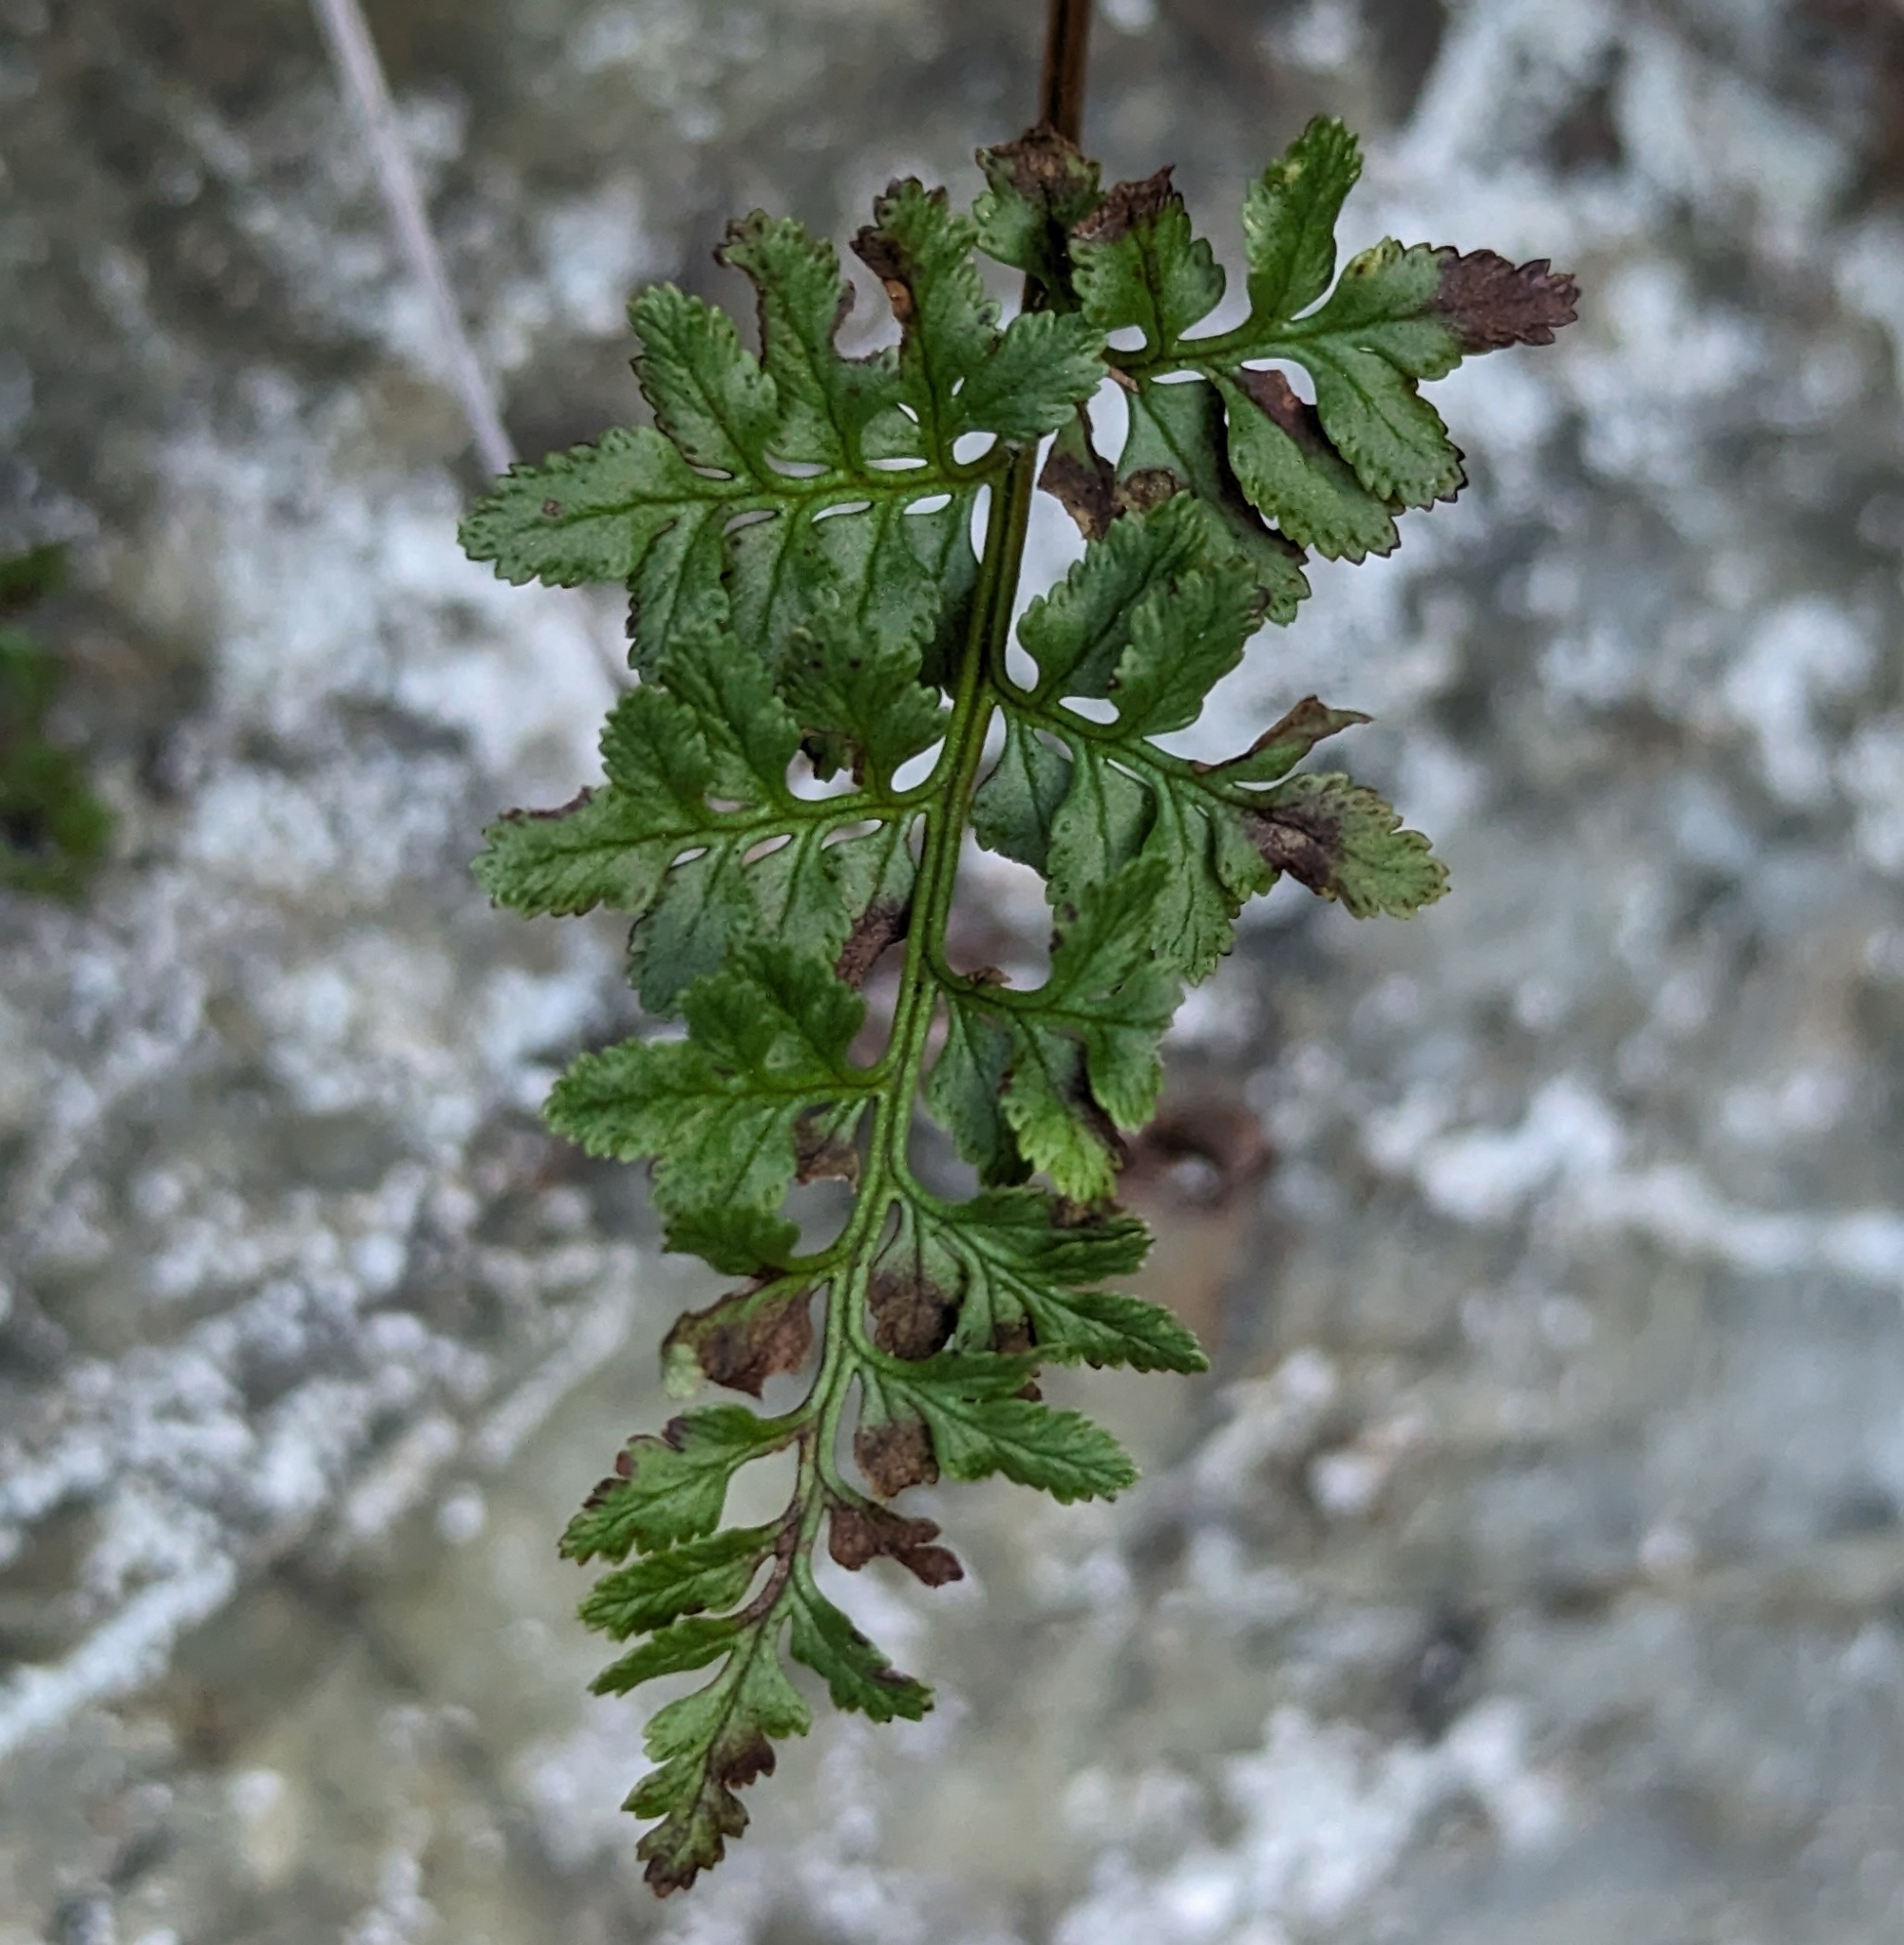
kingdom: Plantae
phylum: Tracheophyta
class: Polypodiopsida
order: Polypodiales
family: Pteridaceae
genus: Cryptogramma
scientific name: Cryptogramma acrostichoides
